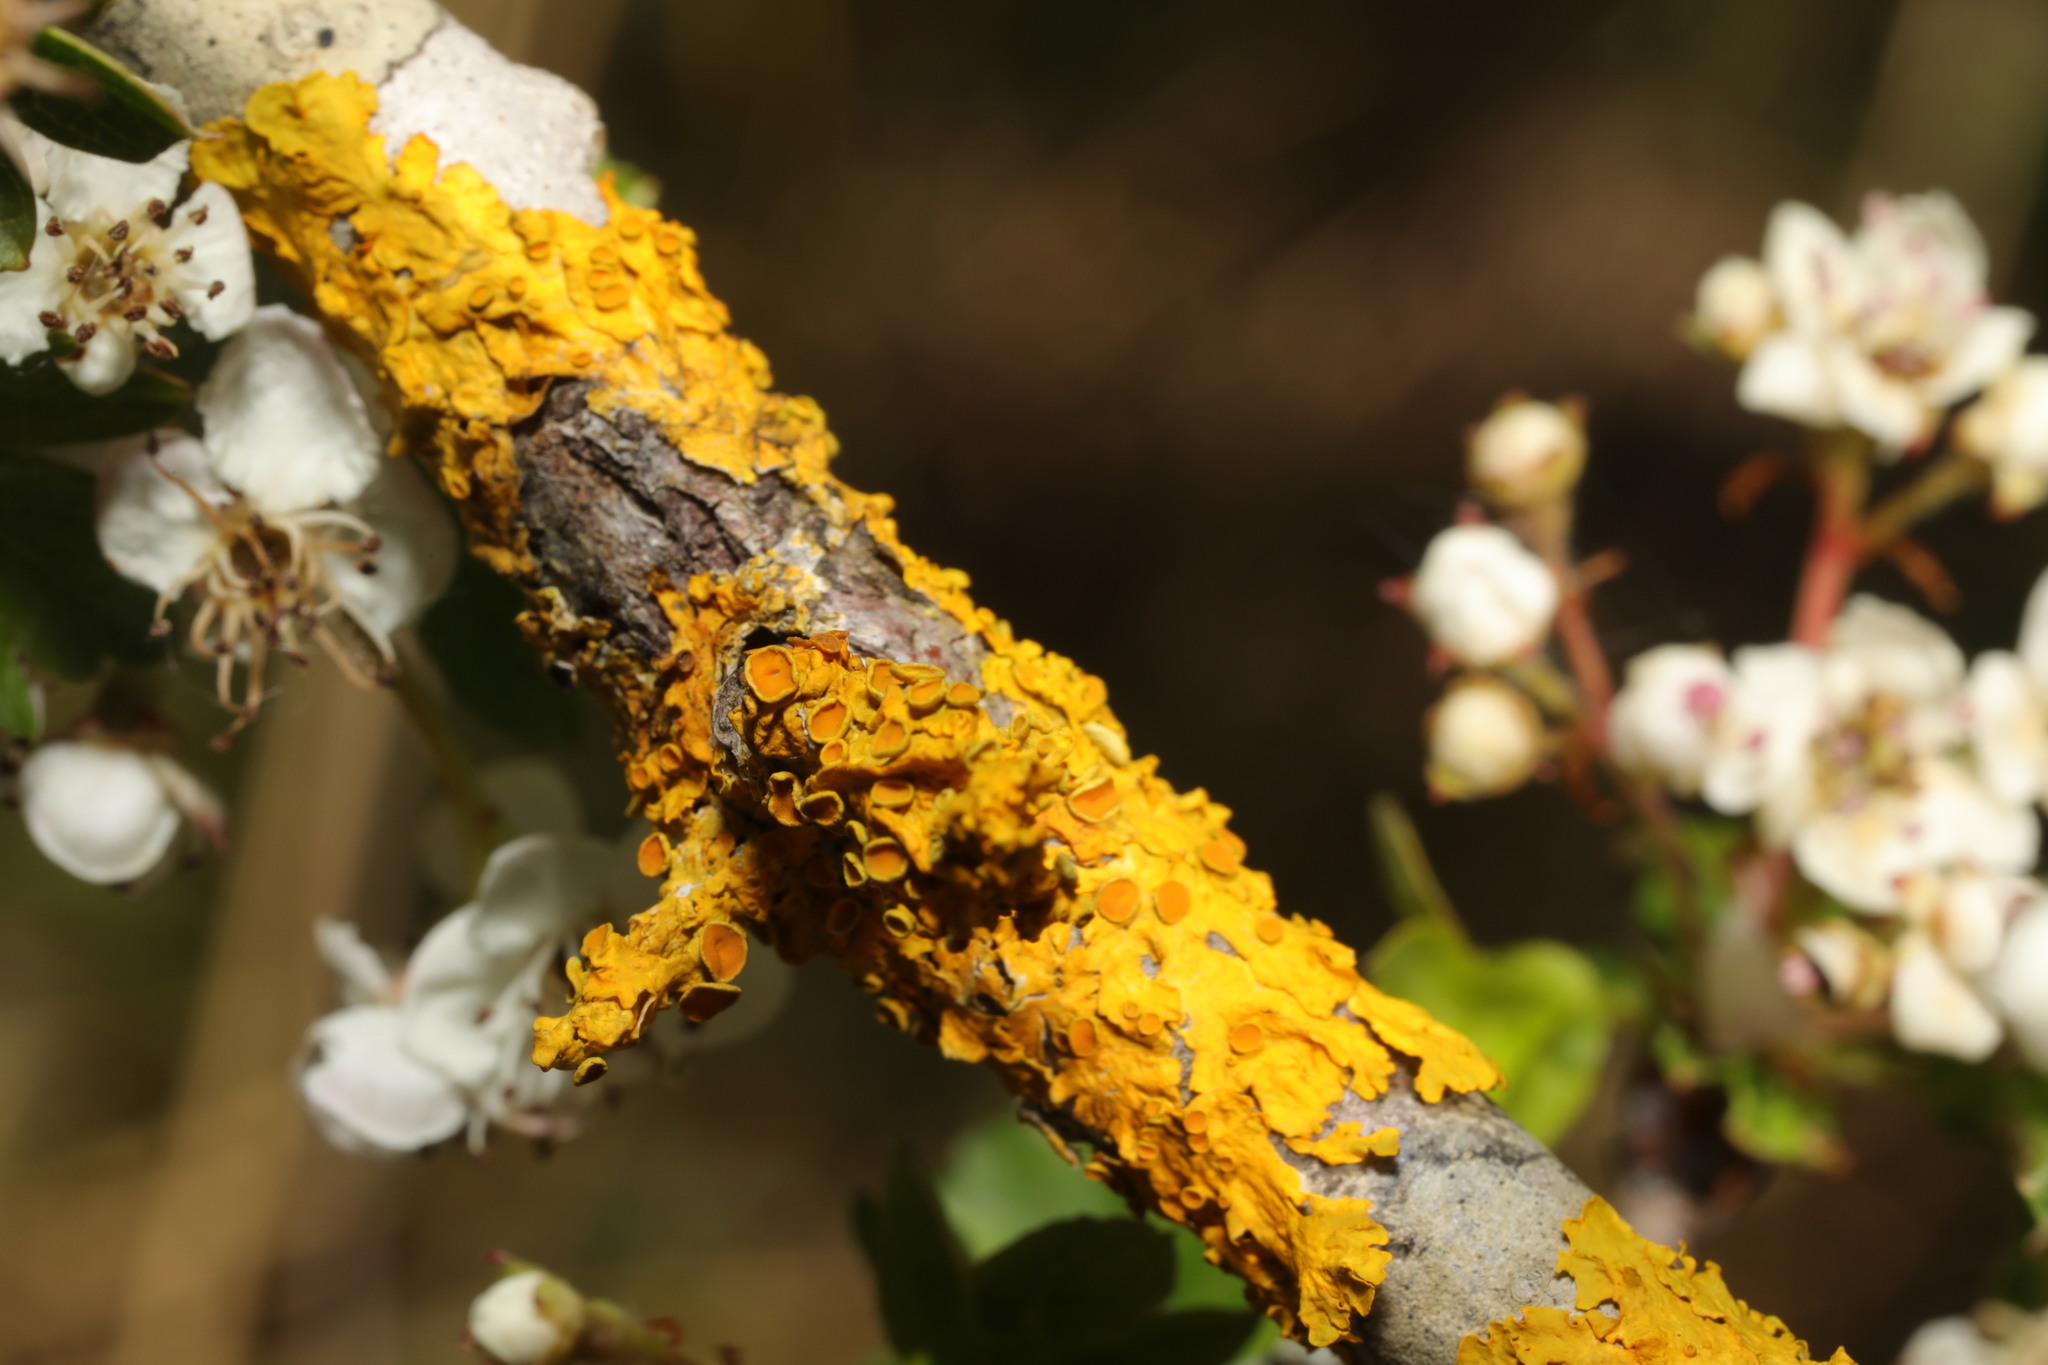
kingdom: Fungi
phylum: Ascomycota
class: Lecanoromycetes
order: Teloschistales
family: Teloschistaceae
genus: Xanthoria
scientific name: Xanthoria parietina
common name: Common orange lichen
